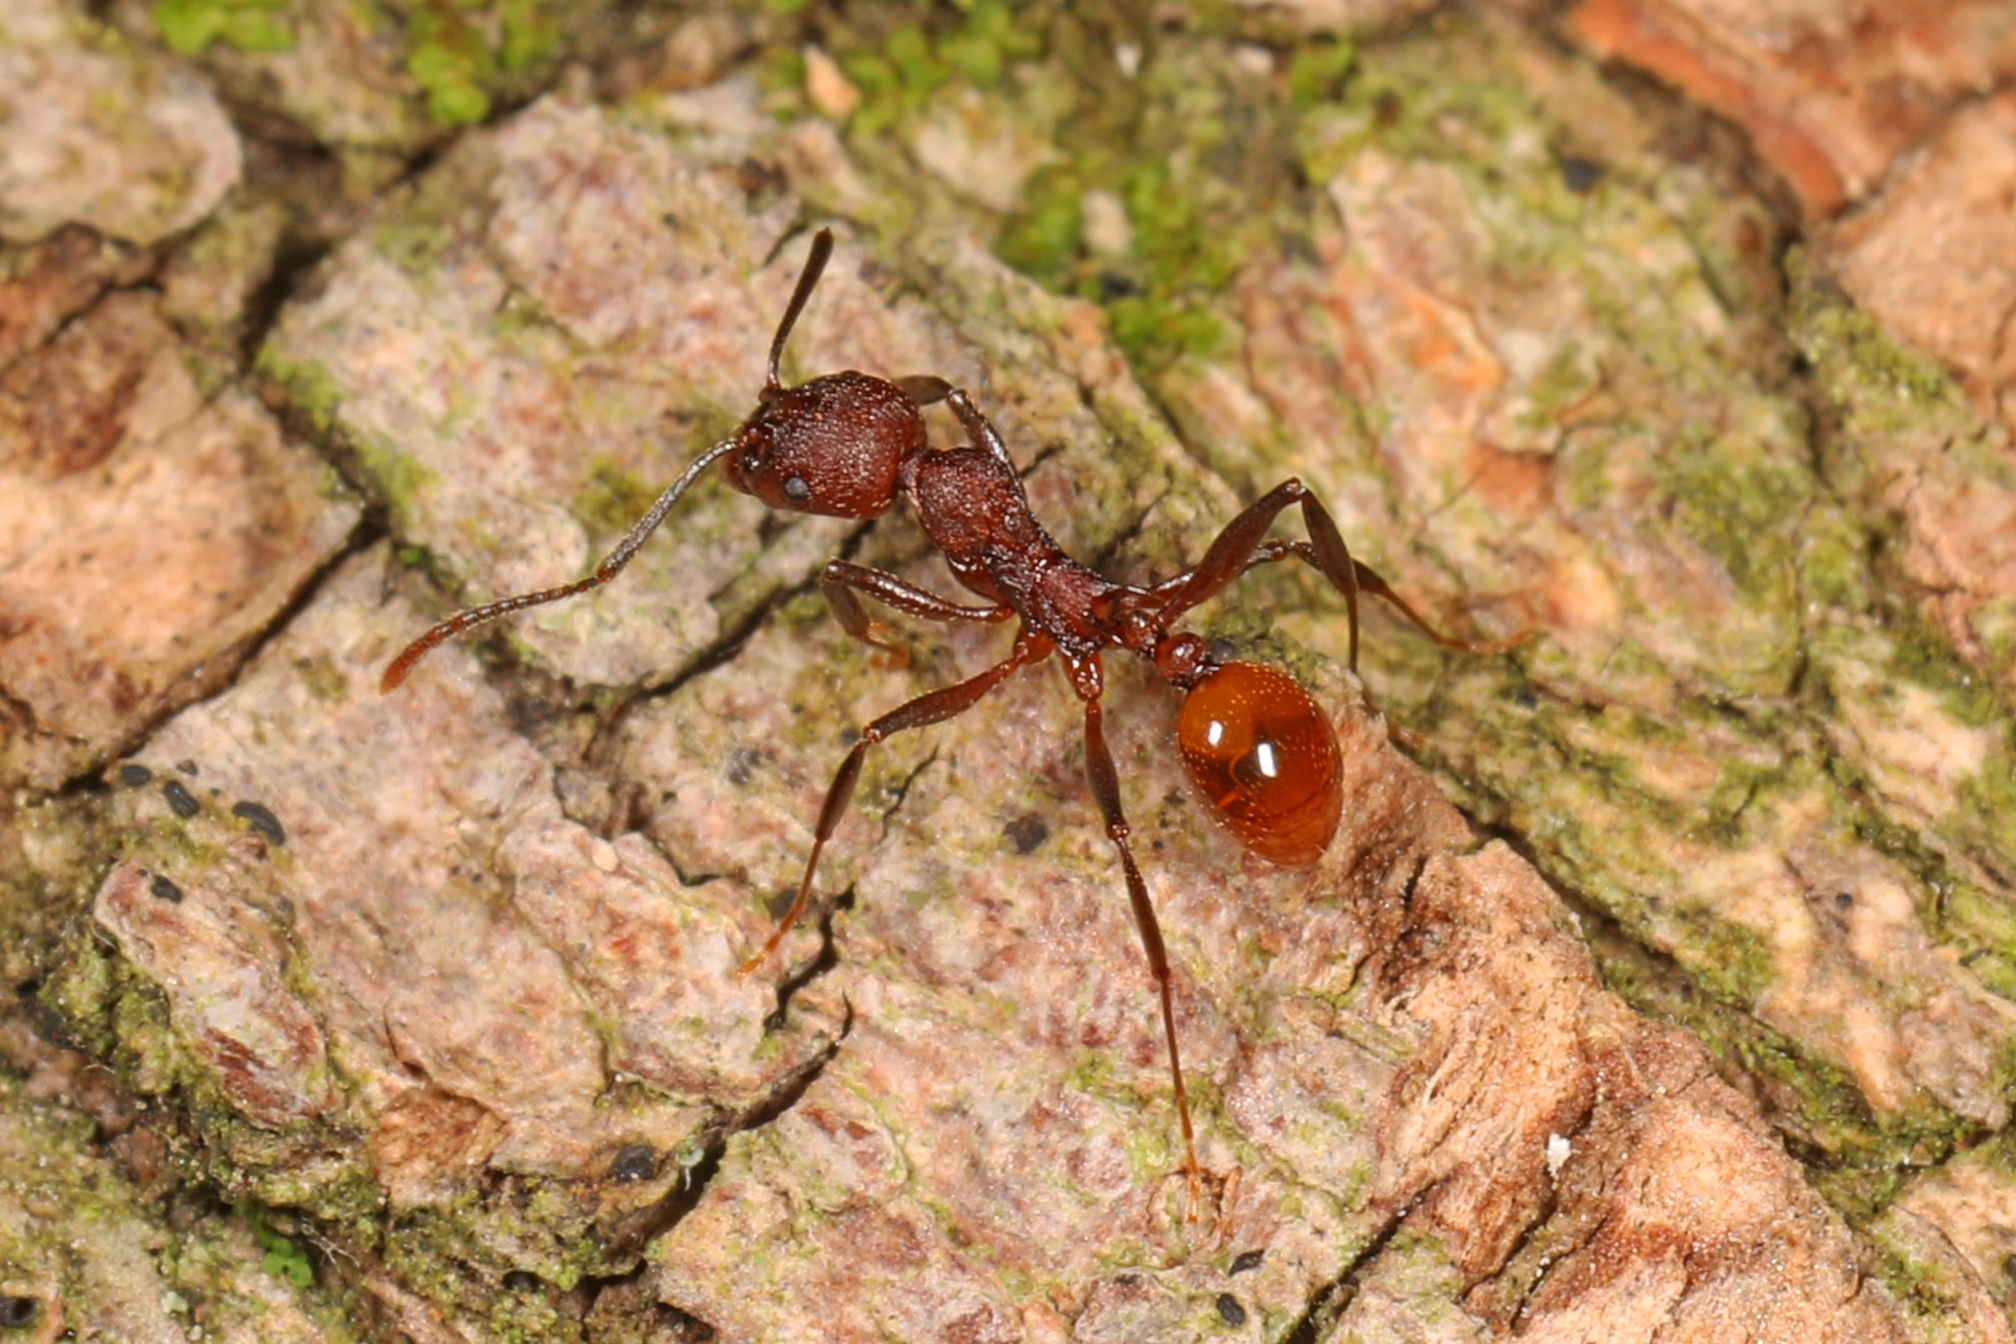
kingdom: Animalia
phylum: Arthropoda
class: Insecta
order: Hymenoptera
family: Formicidae
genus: Aphaenogaster
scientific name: Aphaenogaster tennesseensis
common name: Tennessee thread-waisted ant
